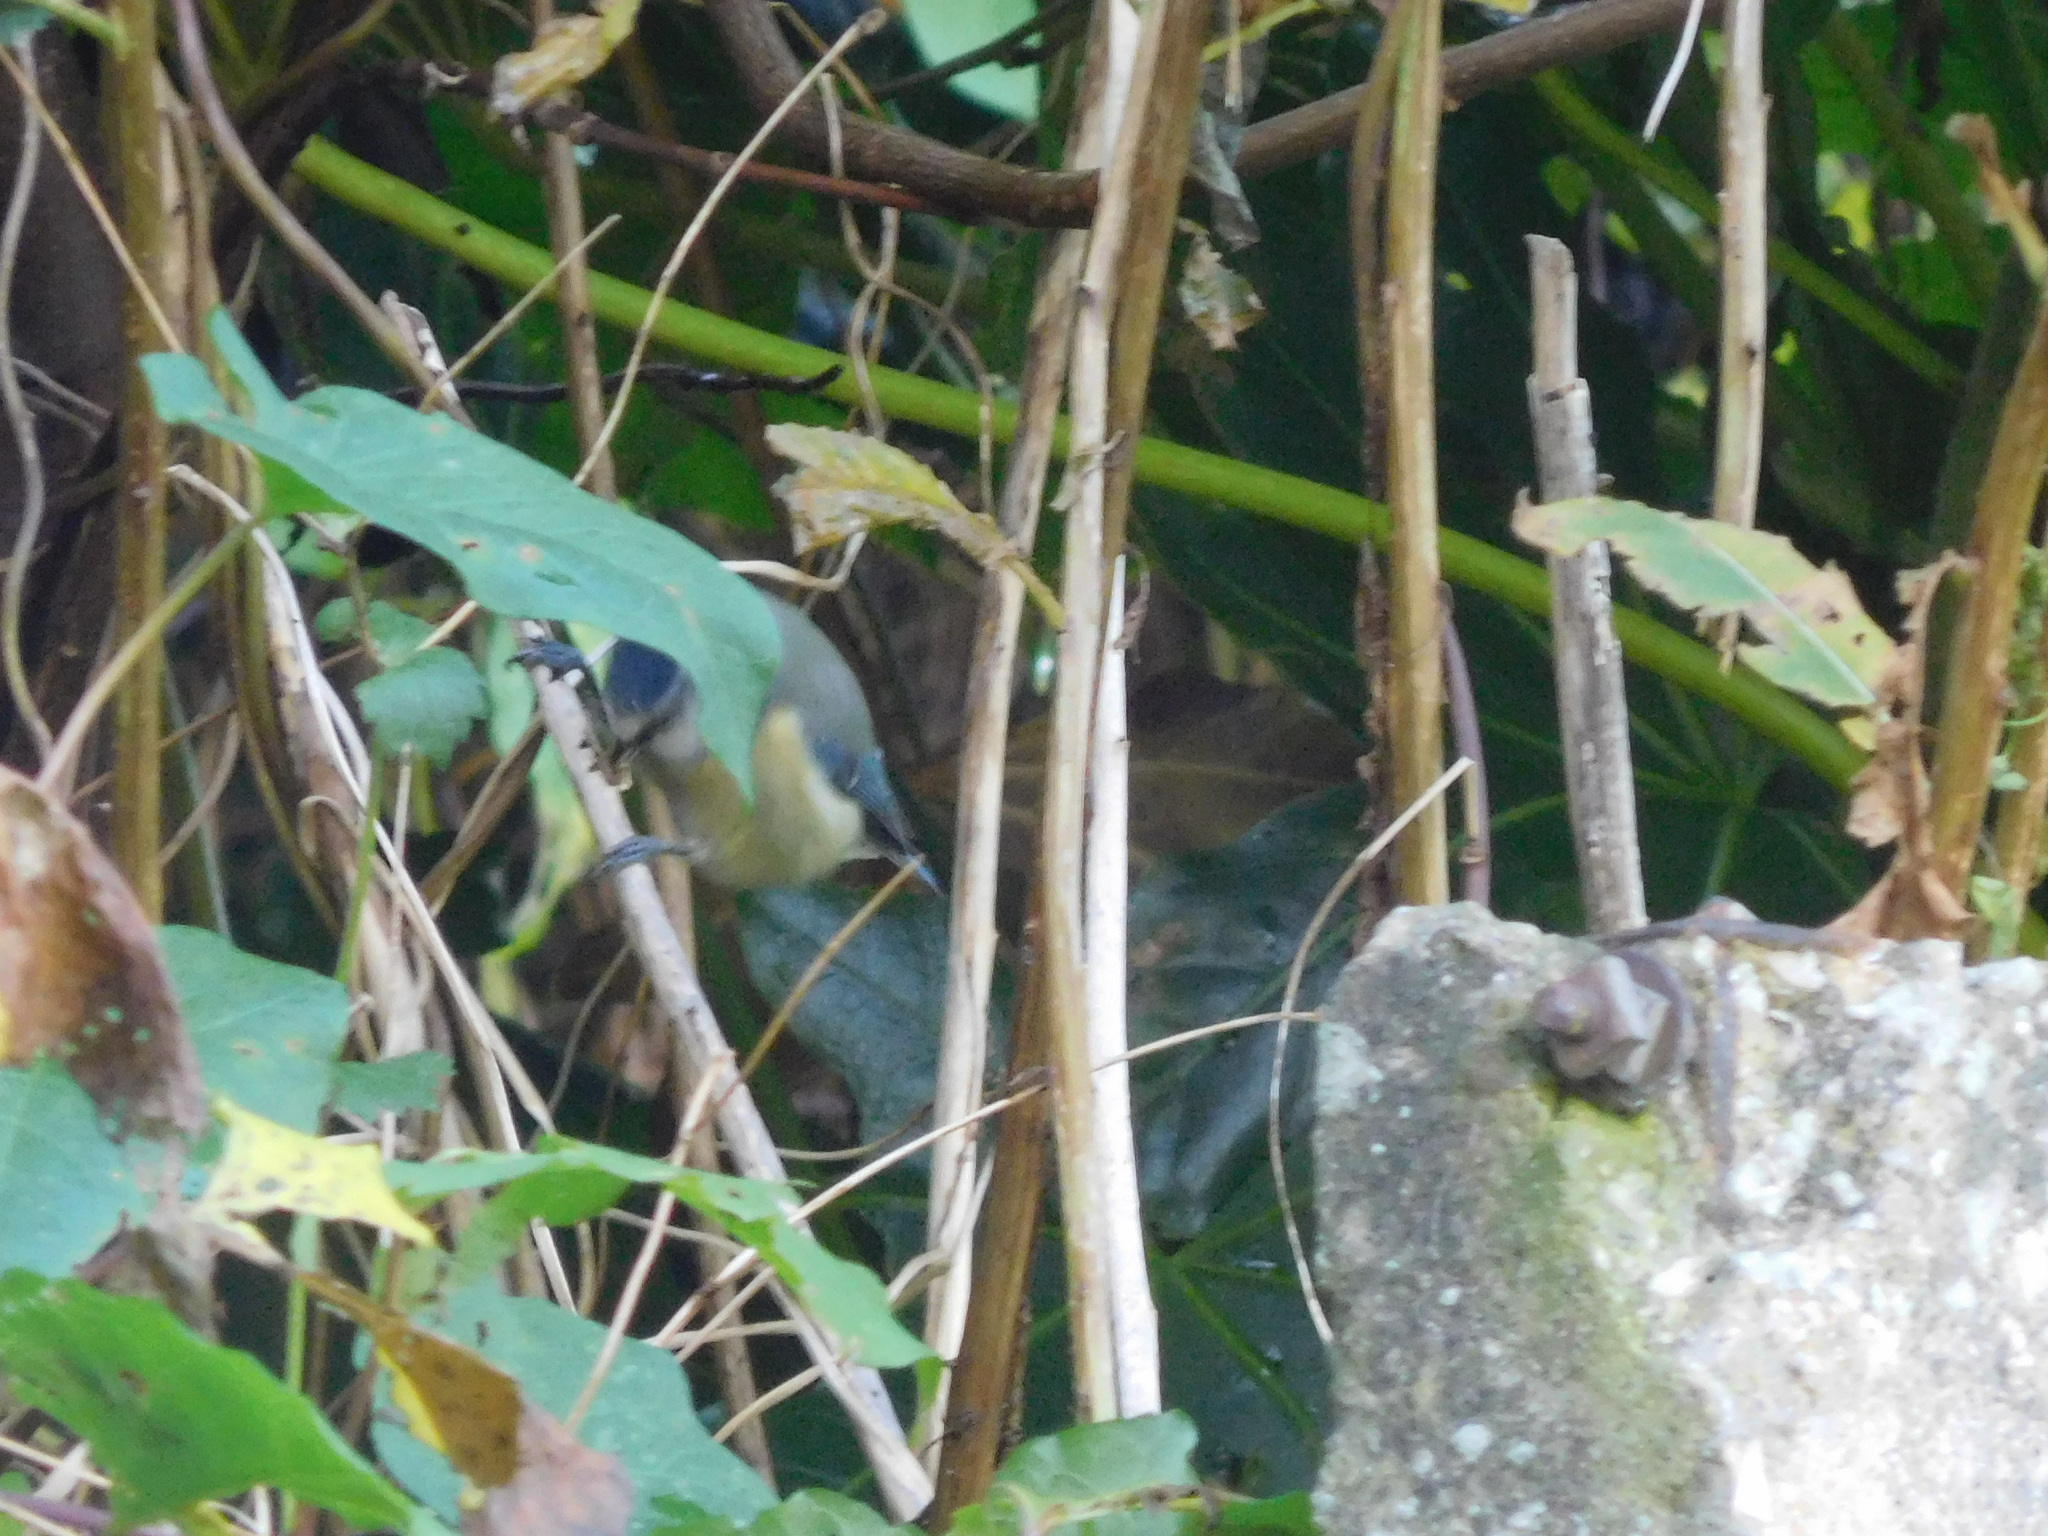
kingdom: Animalia
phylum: Chordata
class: Aves
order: Passeriformes
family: Paridae
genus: Cyanistes
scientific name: Cyanistes caeruleus
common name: Eurasian blue tit
